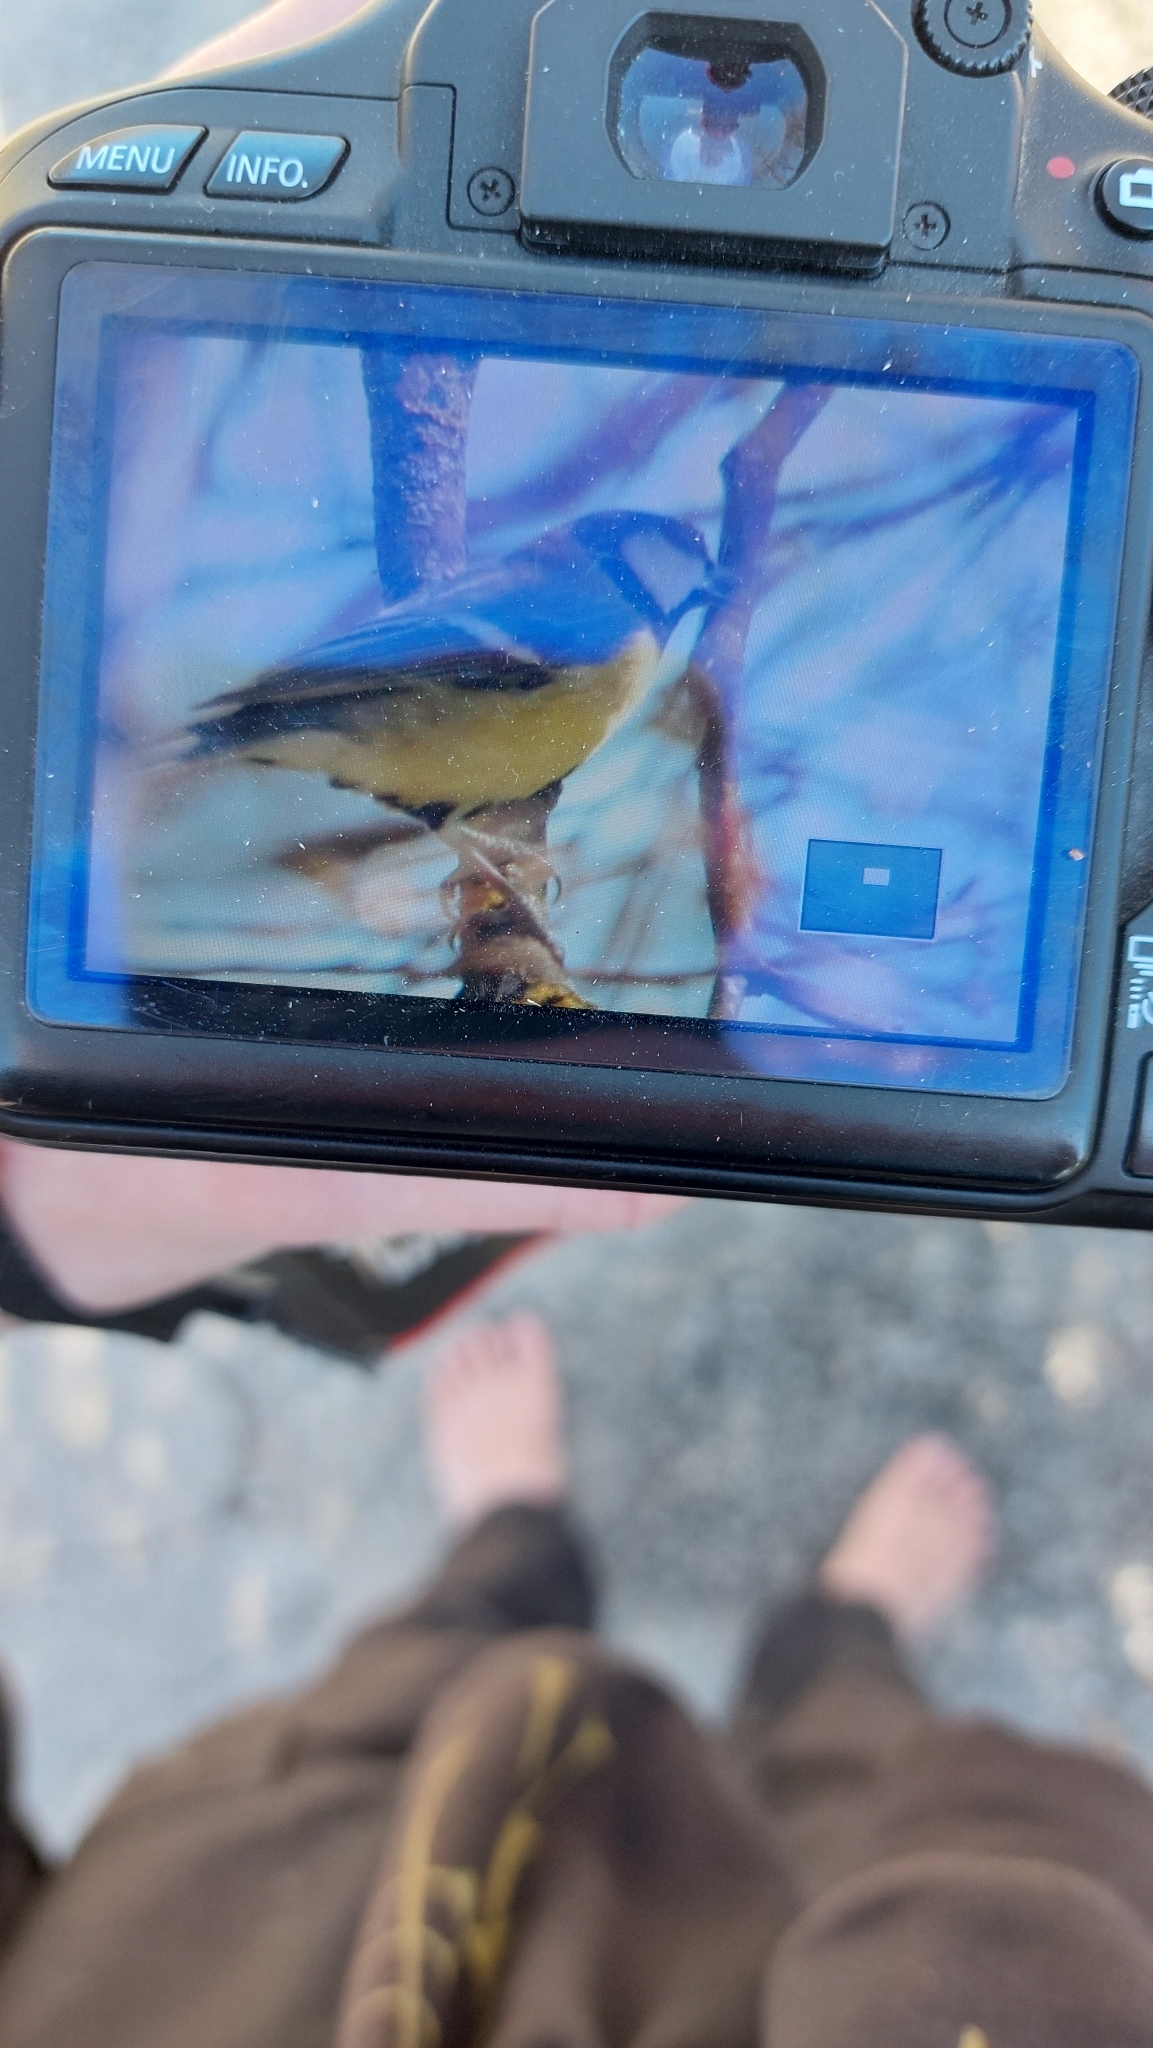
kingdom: Animalia
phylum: Chordata
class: Aves
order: Passeriformes
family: Paridae
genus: Parus
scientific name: Parus major
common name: Great tit
